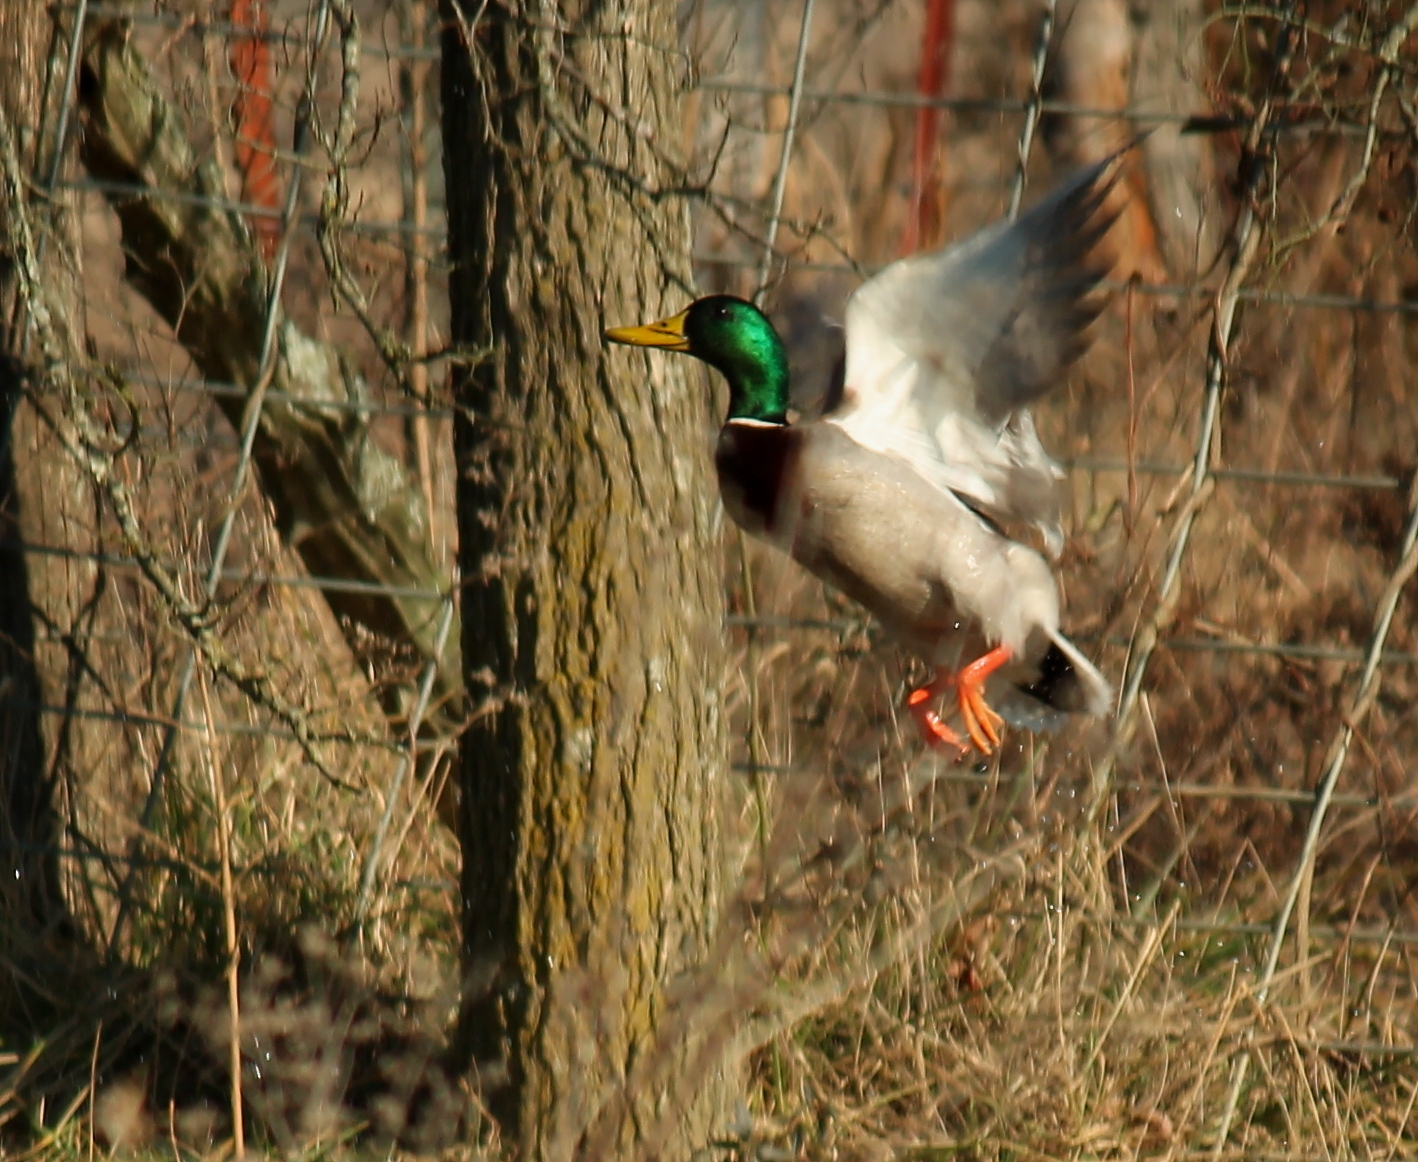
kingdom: Animalia
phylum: Chordata
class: Aves
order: Anseriformes
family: Anatidae
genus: Anas
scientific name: Anas platyrhynchos
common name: Mallard
